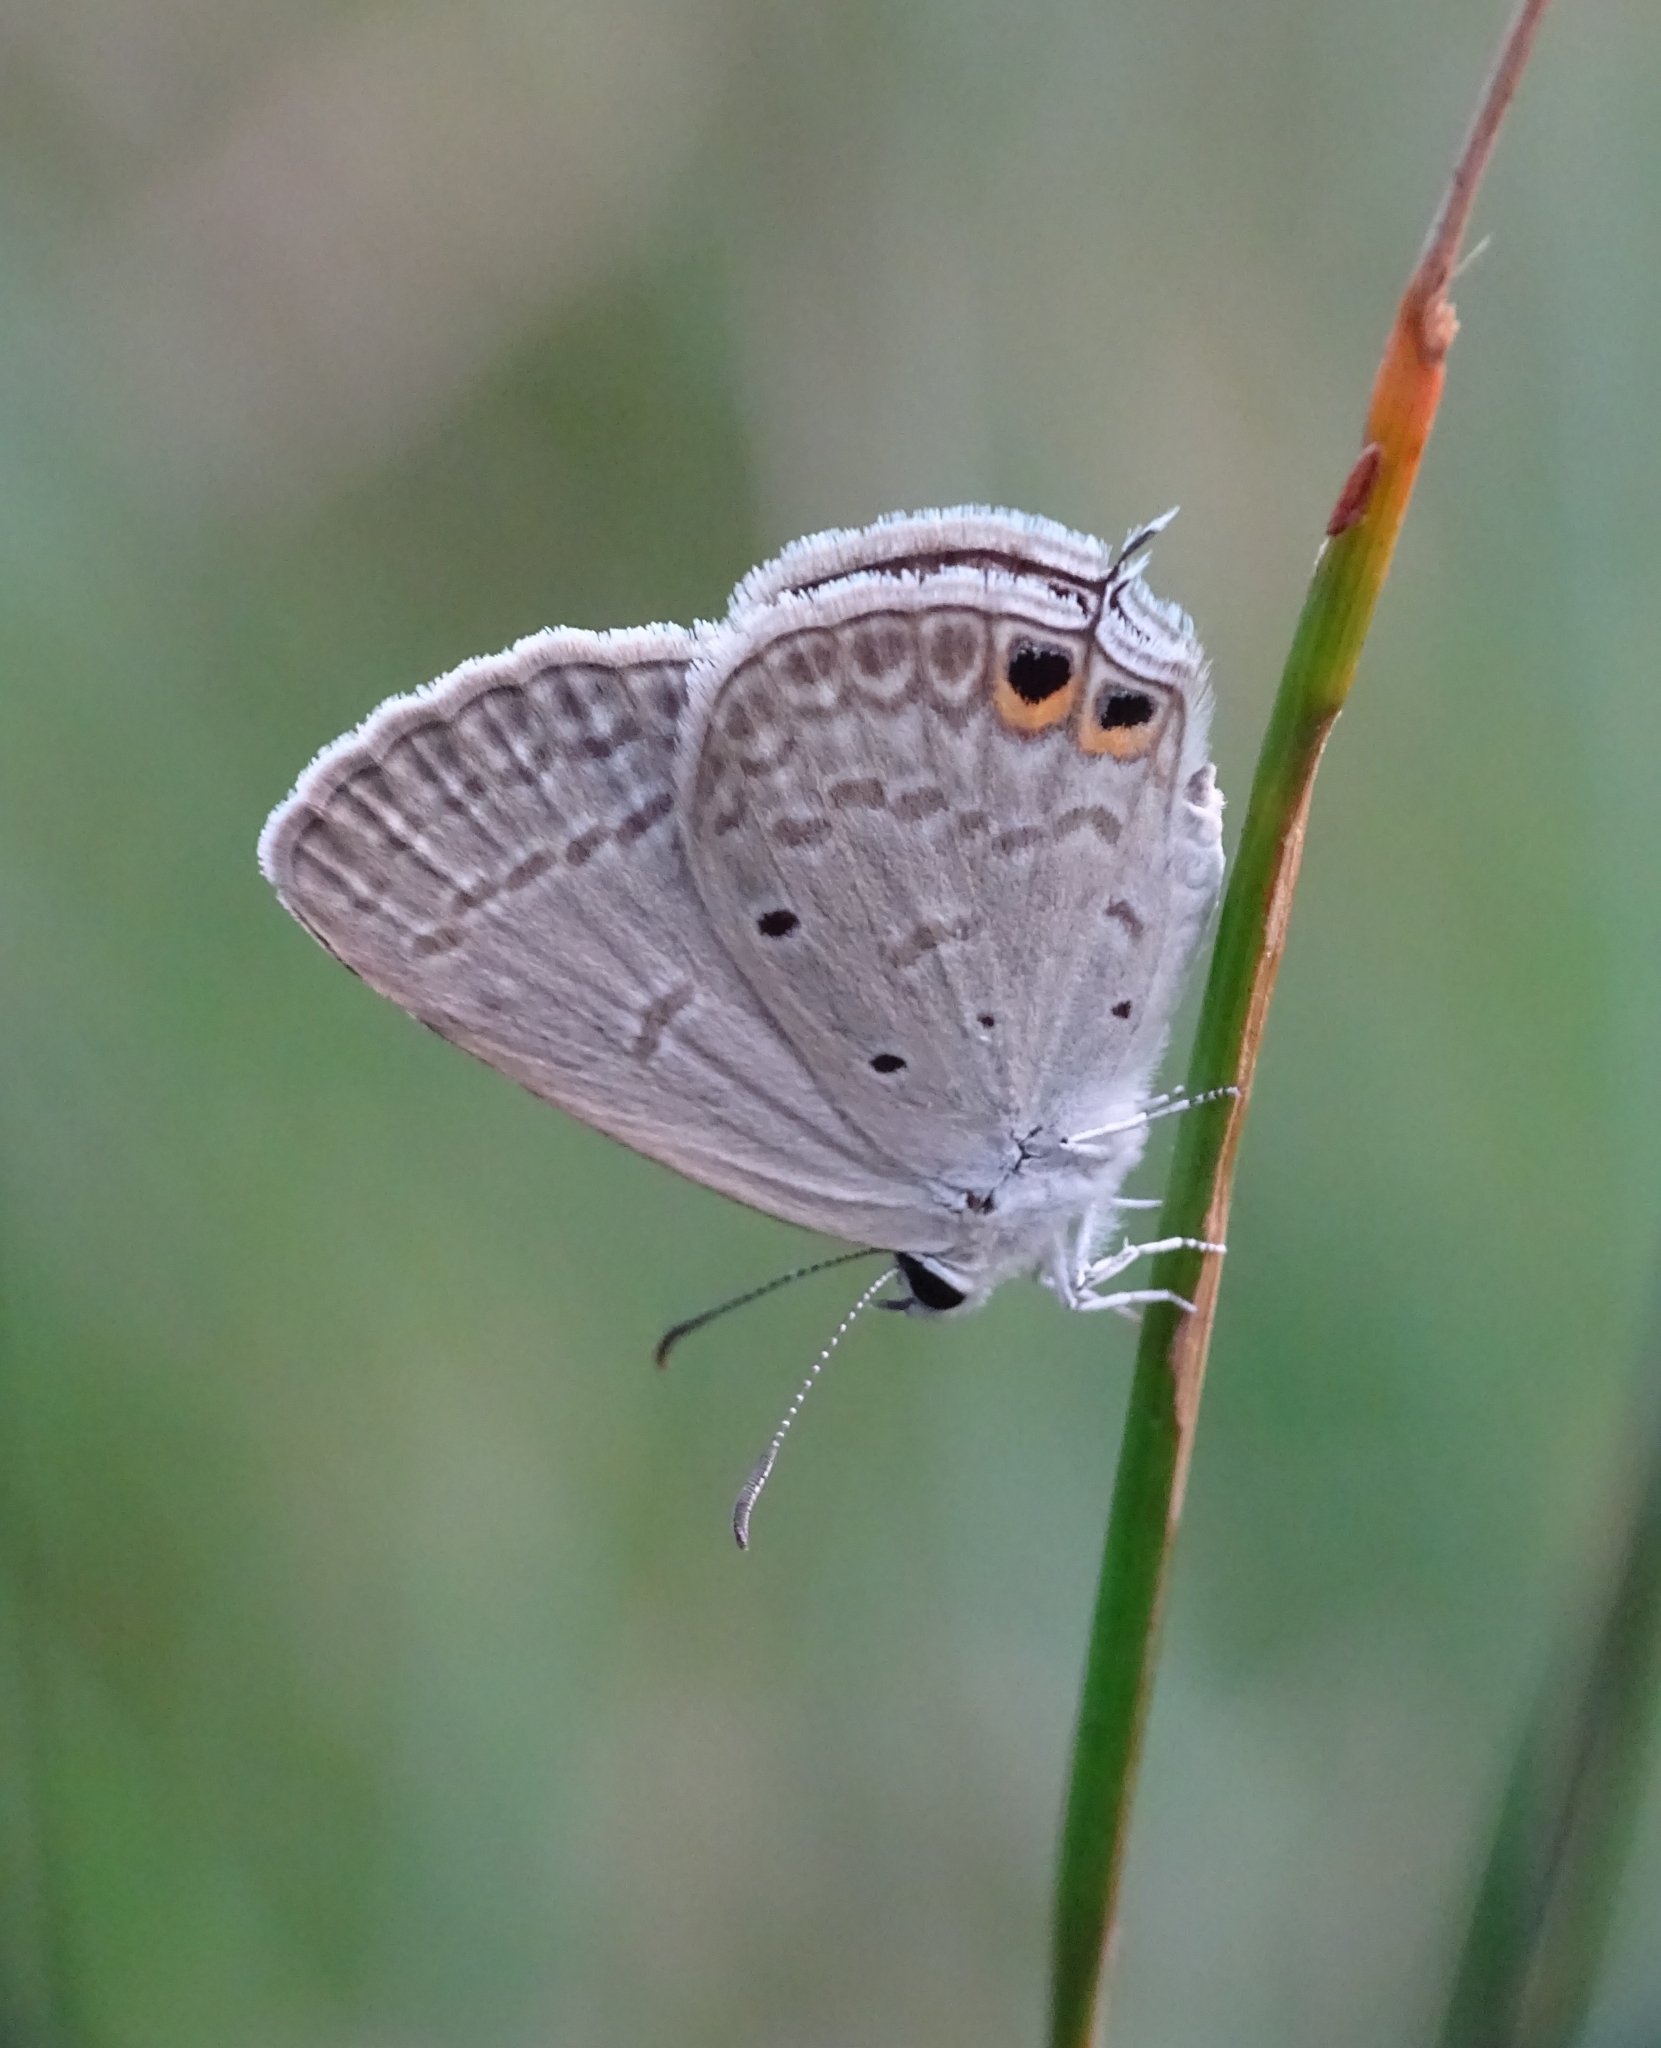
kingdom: Animalia
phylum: Arthropoda
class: Insecta
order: Lepidoptera
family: Lycaenidae
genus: Euchrysops
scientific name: Euchrysops cnejus
